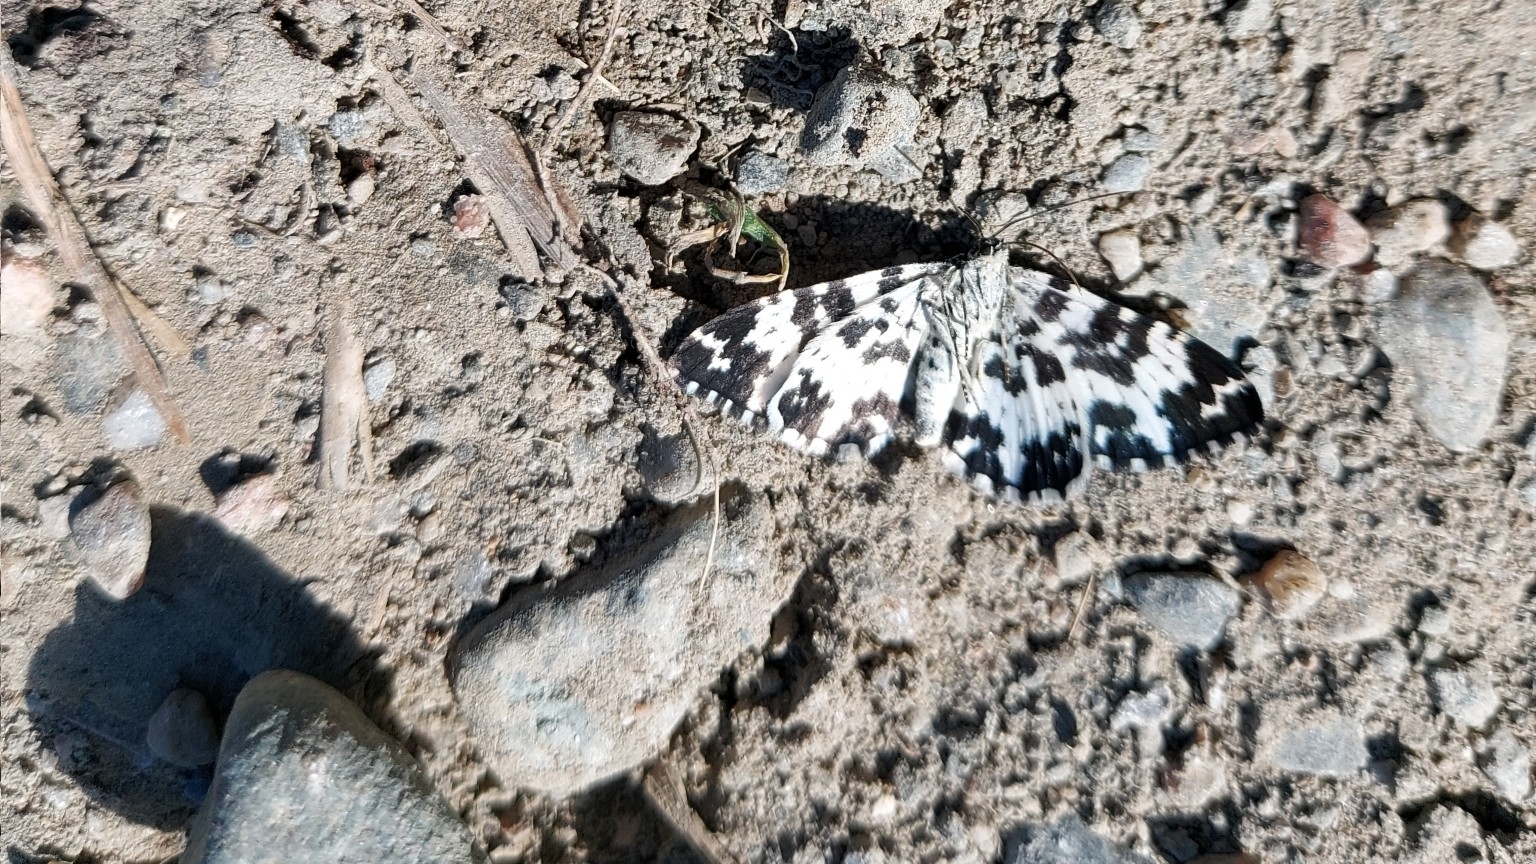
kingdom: Animalia
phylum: Arthropoda
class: Insecta
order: Lepidoptera
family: Geometridae
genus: Rheumaptera
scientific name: Rheumaptera hastata
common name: Argent & sable
